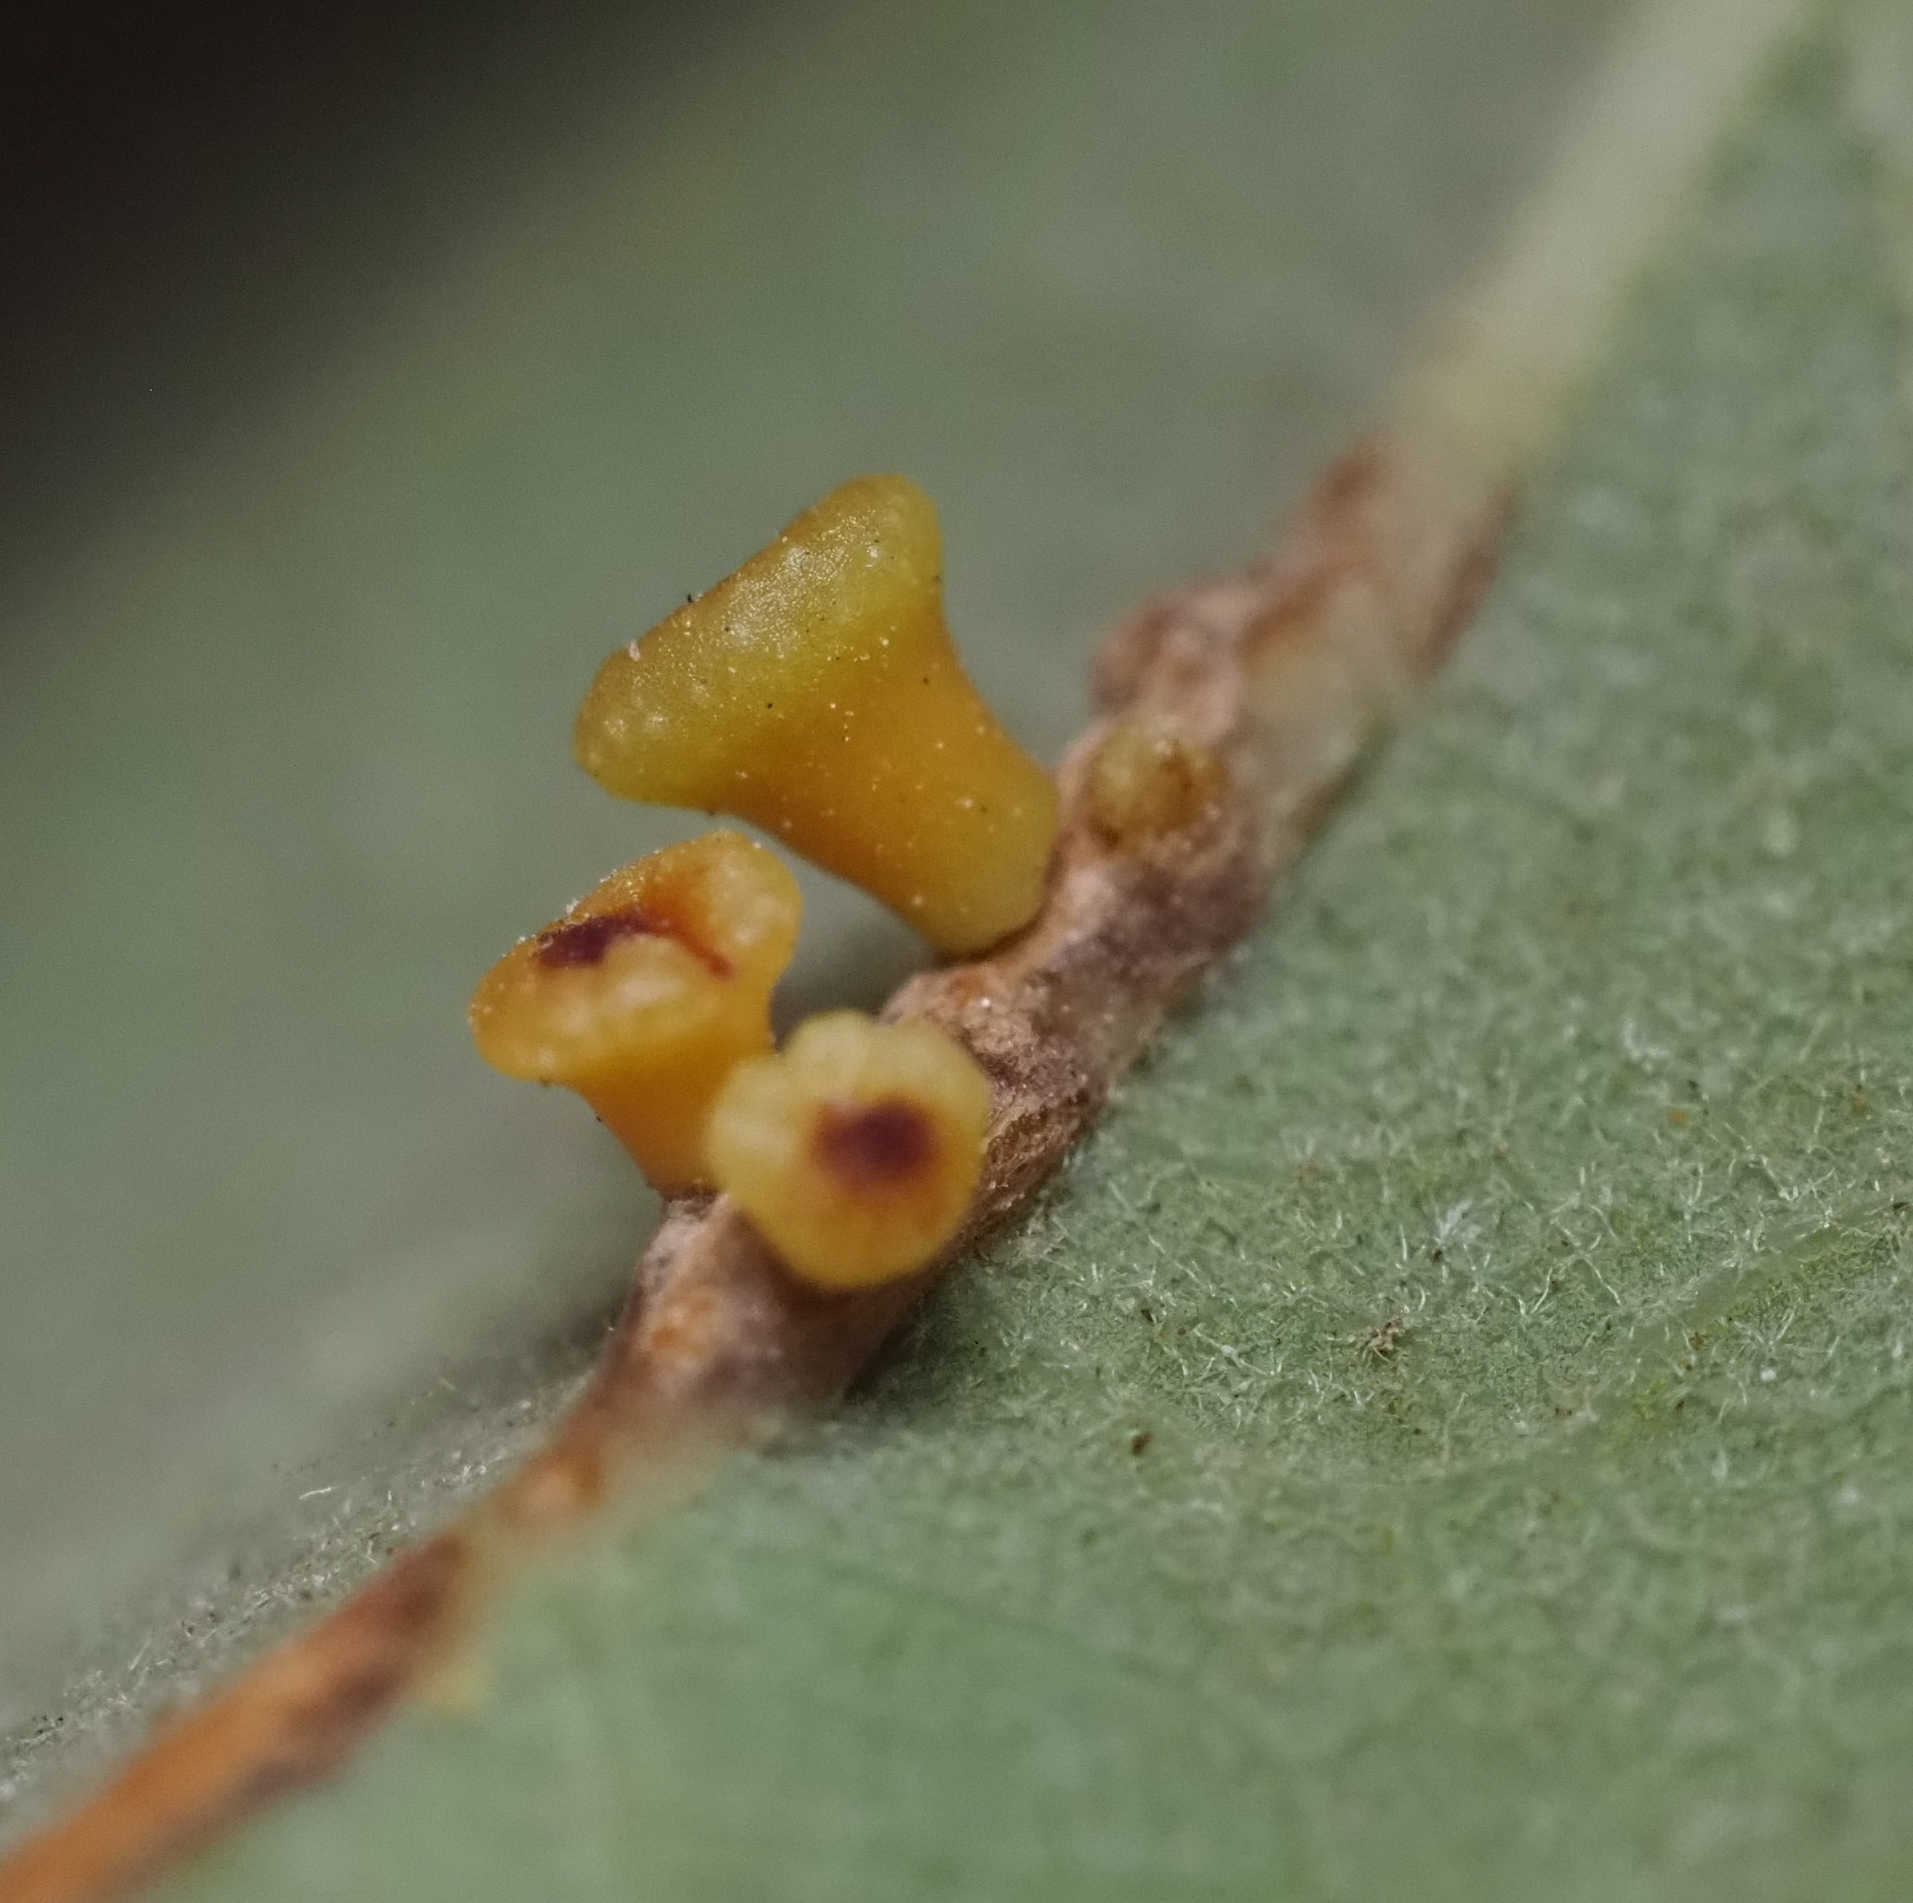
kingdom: Animalia
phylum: Arthropoda
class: Insecta
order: Hymenoptera
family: Cynipidae
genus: Andricus
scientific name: Andricus lustrans
